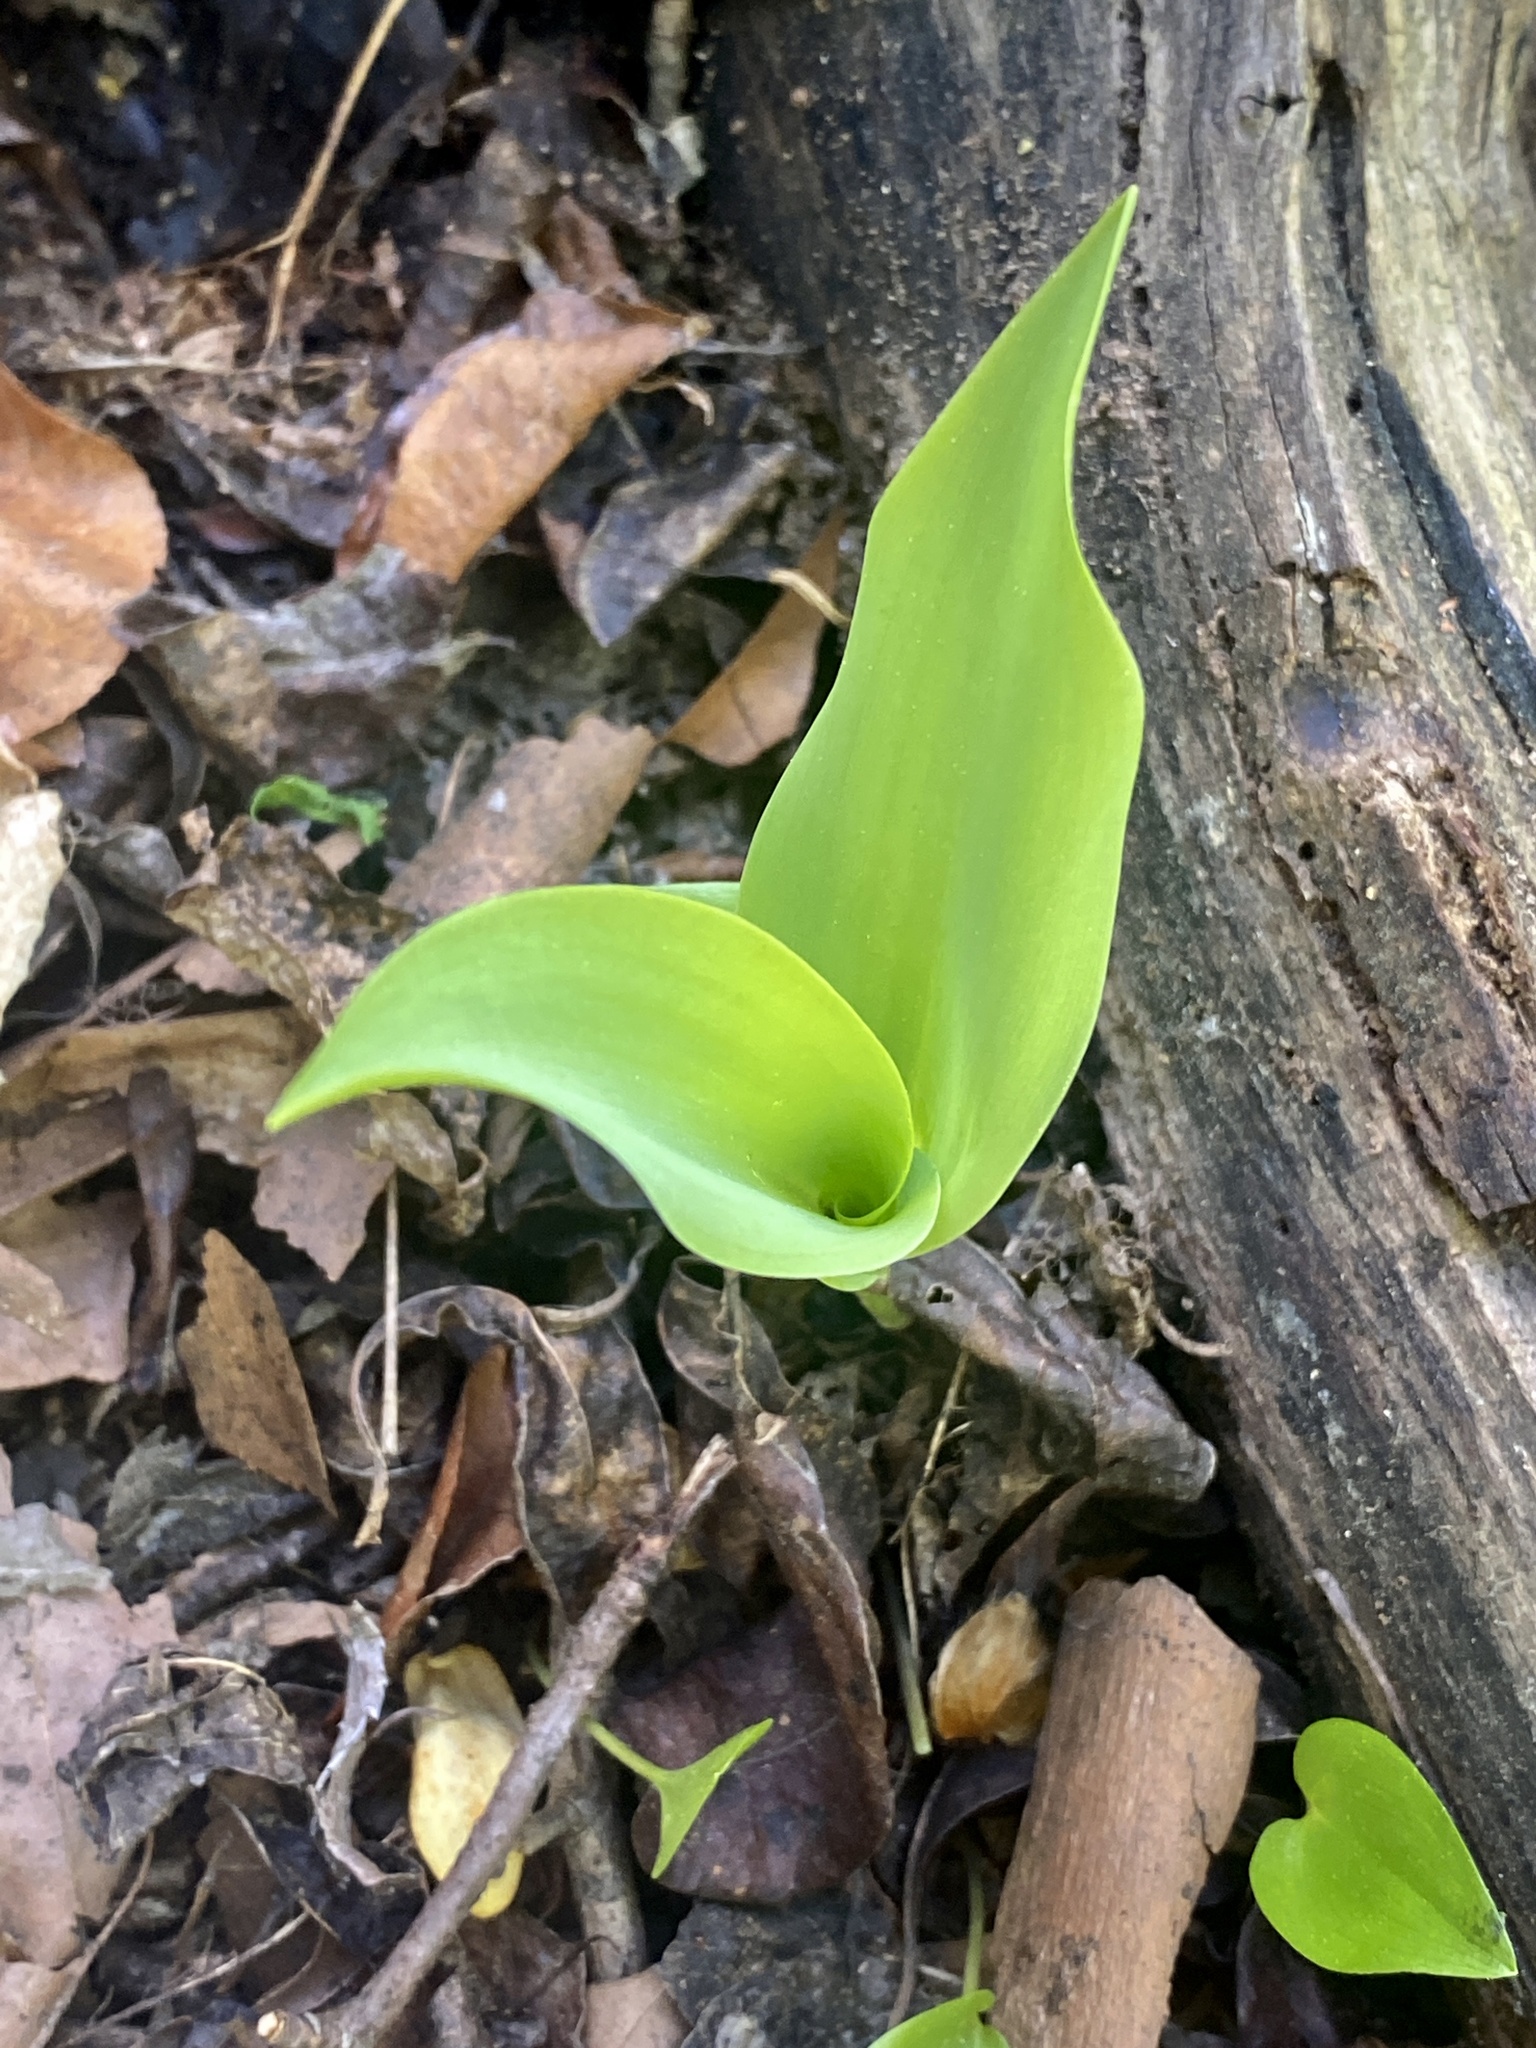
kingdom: Plantae
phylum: Tracheophyta
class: Liliopsida
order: Asparagales
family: Asparagaceae
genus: Convallaria
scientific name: Convallaria majalis
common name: Lily-of-the-valley
